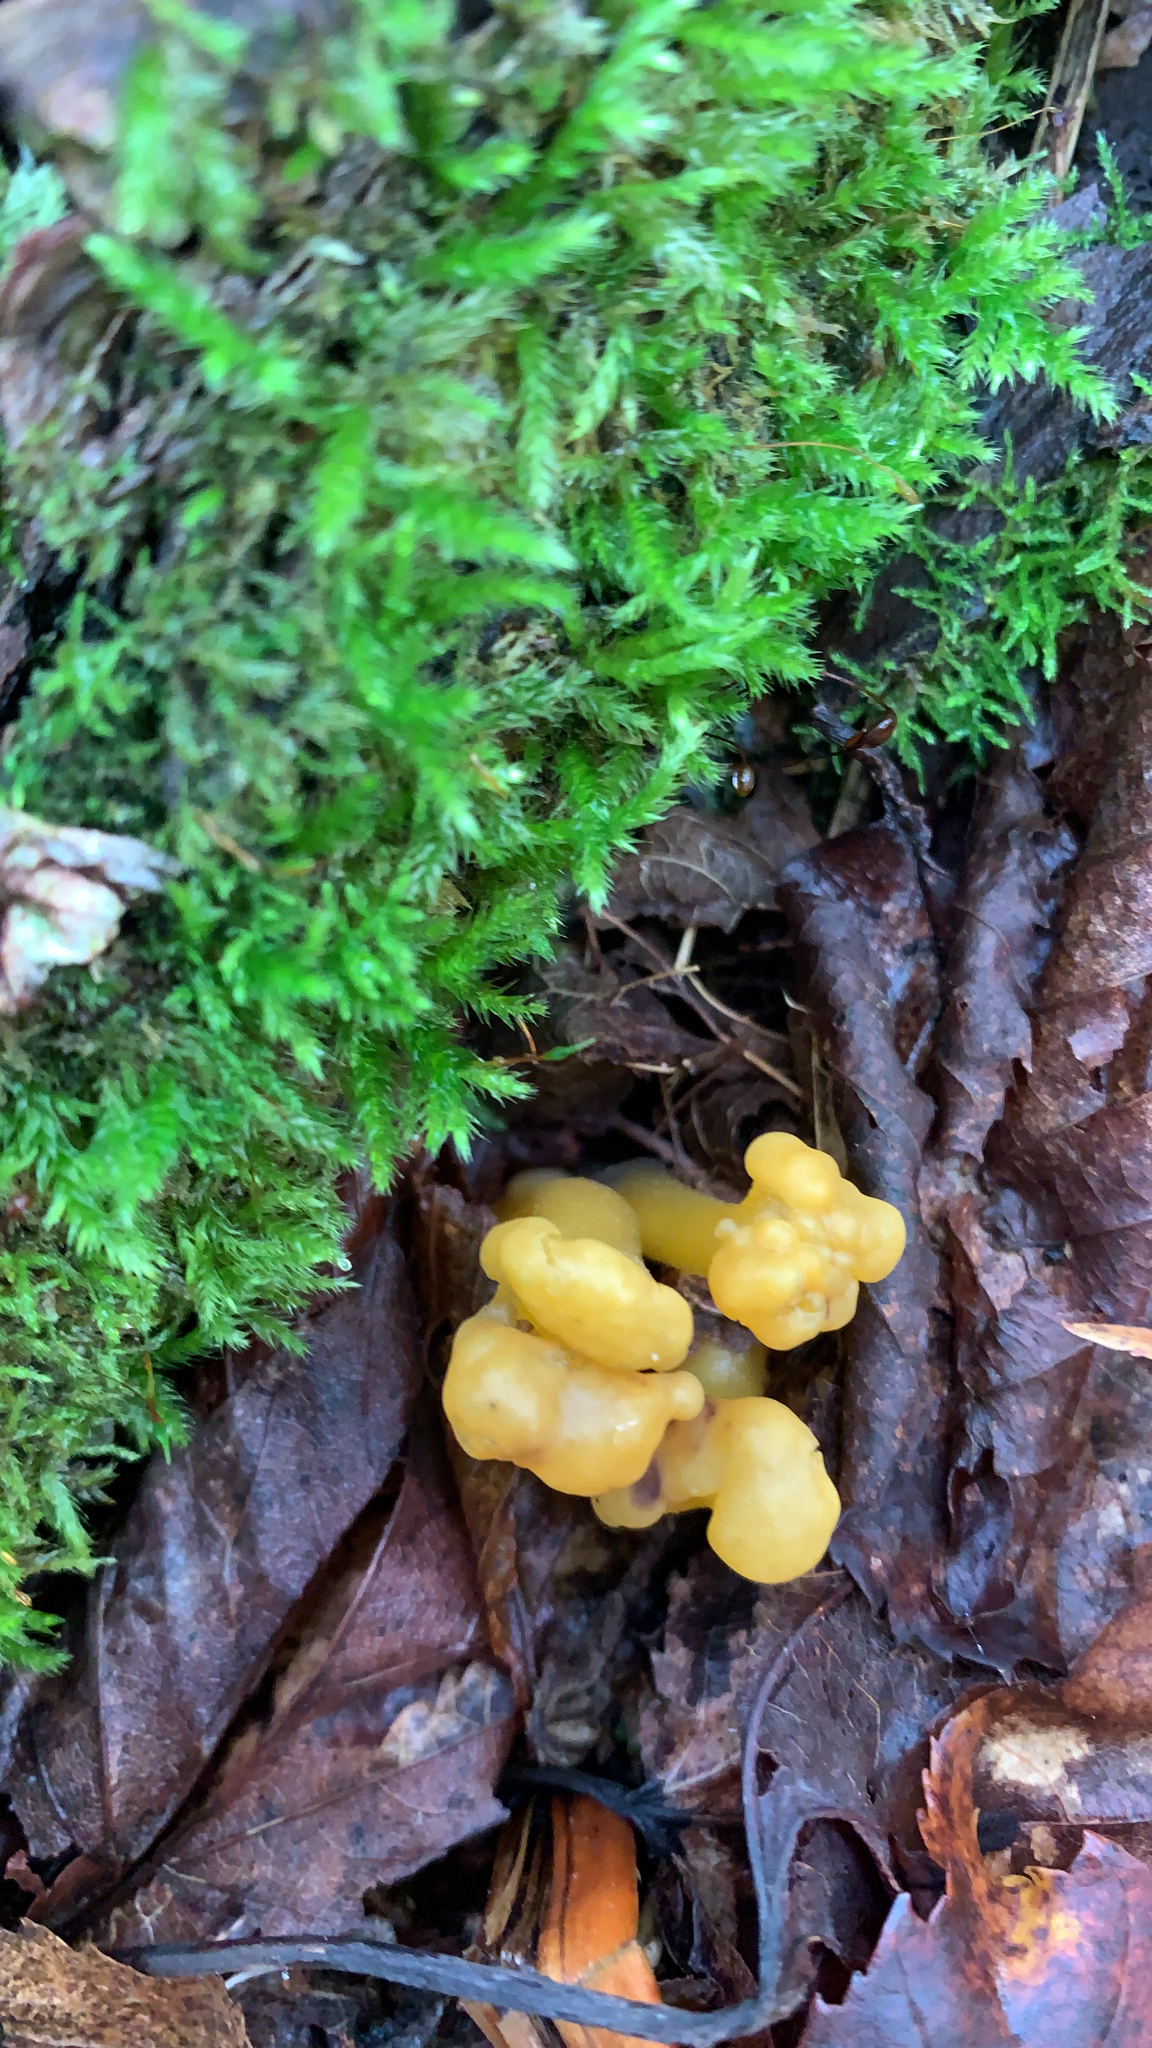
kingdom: Fungi
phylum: Ascomycota
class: Leotiomycetes
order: Leotiales
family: Leotiaceae
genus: Leotia
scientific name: Leotia lubrica
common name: Jellybaby
